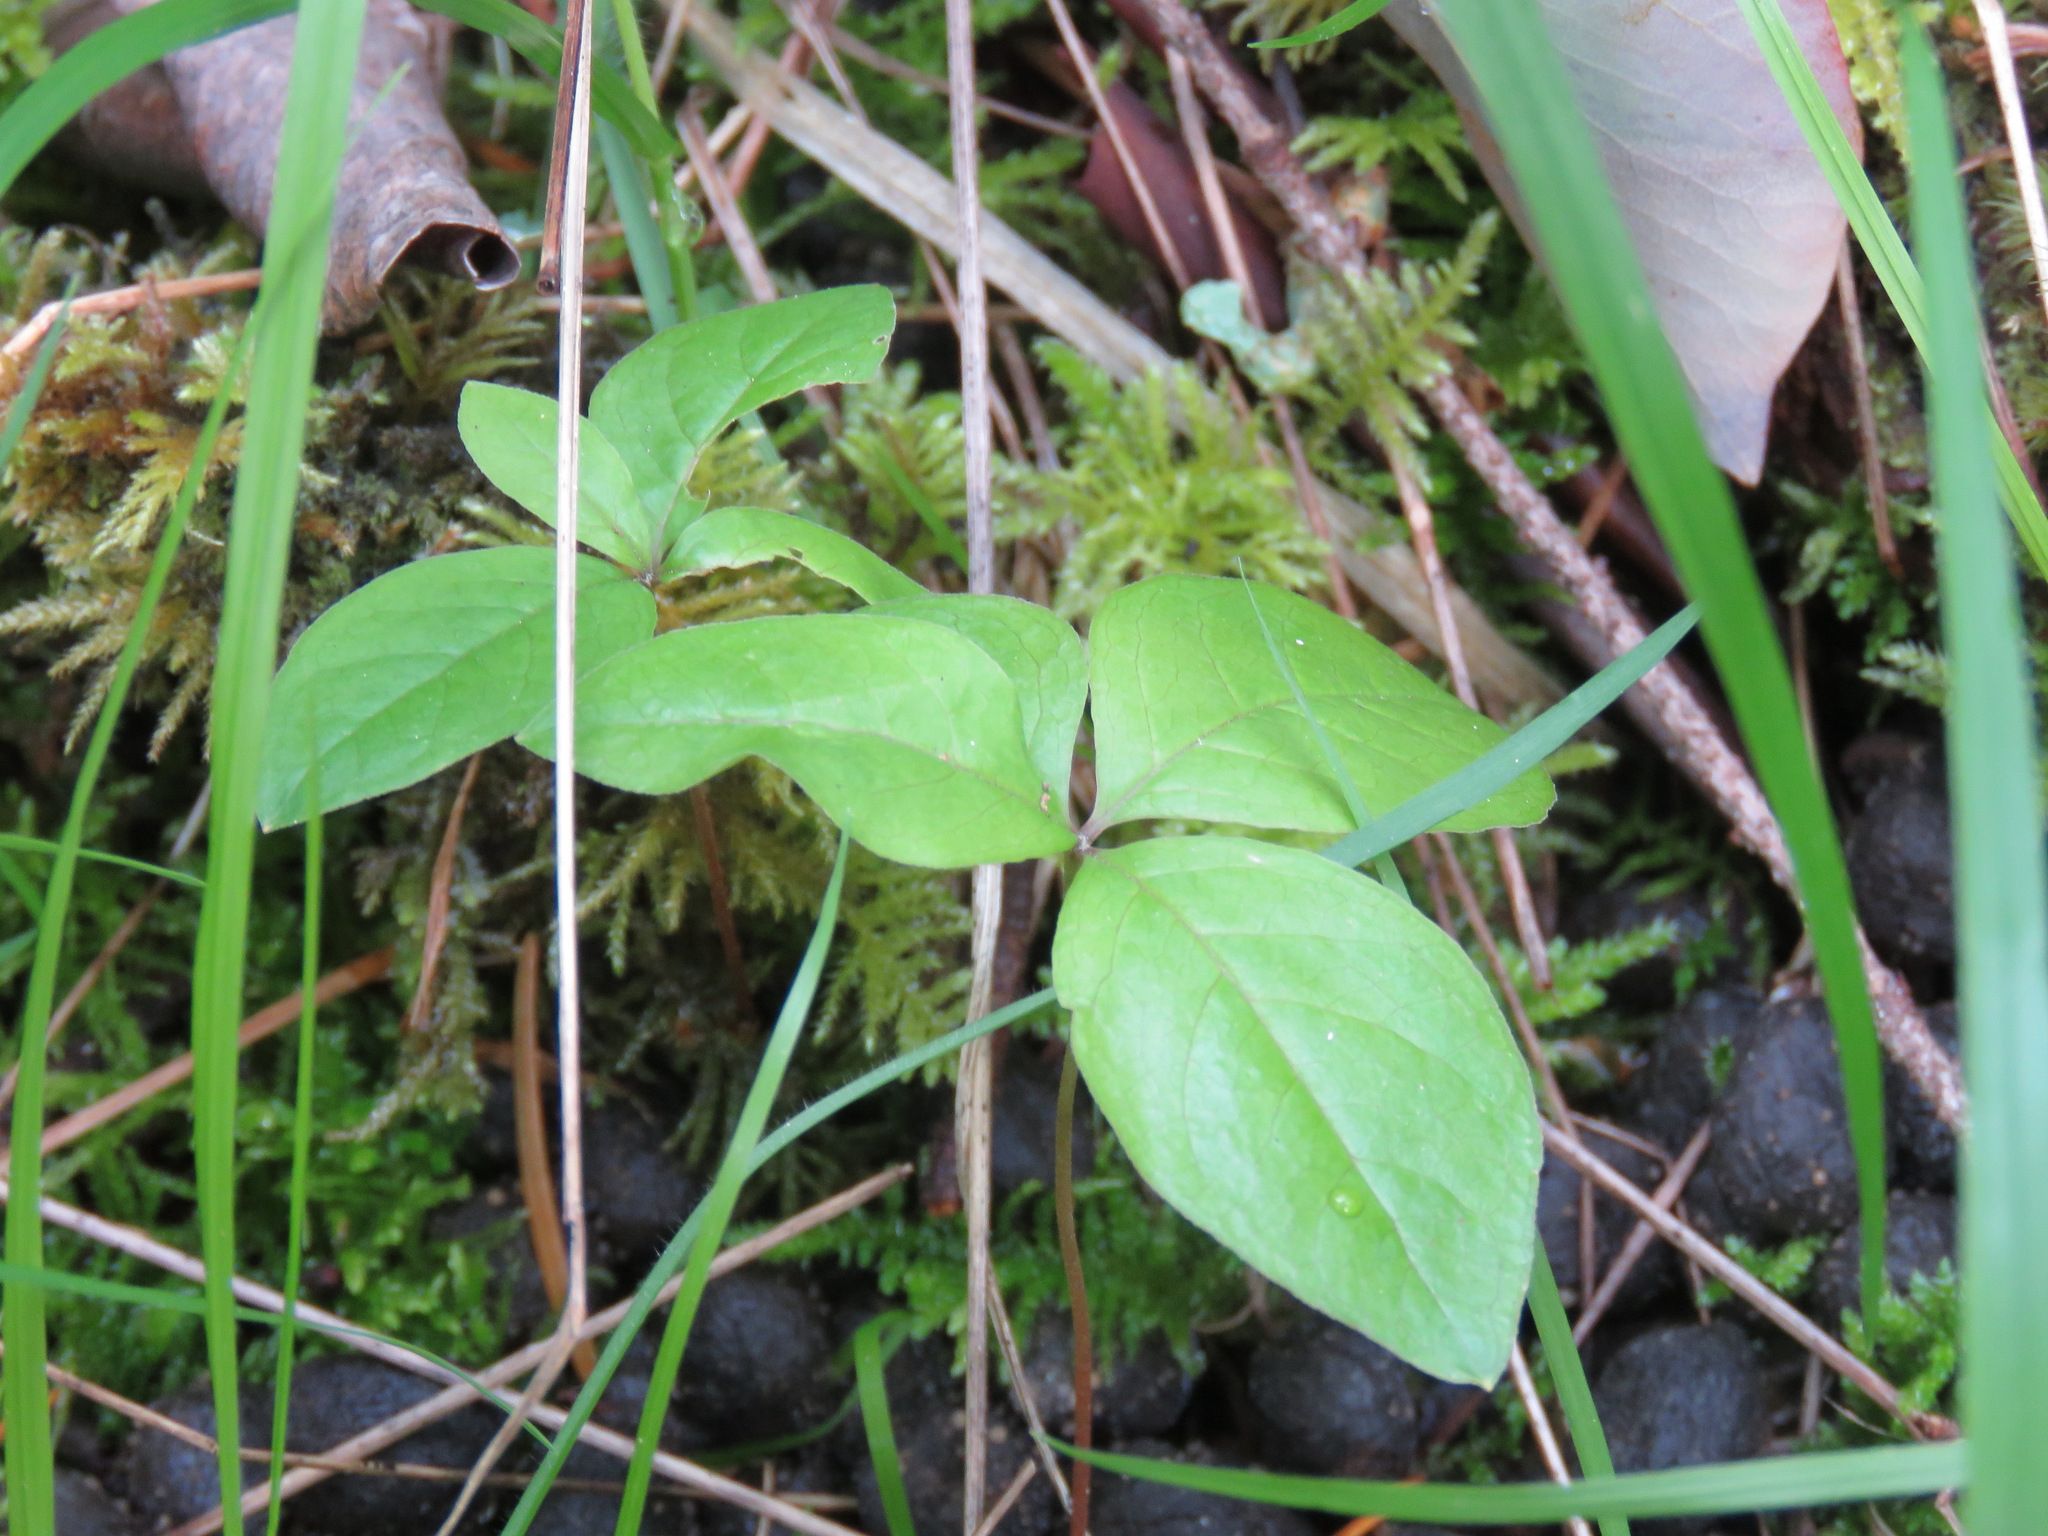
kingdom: Plantae
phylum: Tracheophyta
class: Magnoliopsida
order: Ericales
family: Primulaceae
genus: Lysimachia
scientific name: Lysimachia latifolia
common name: Pacific starflower
